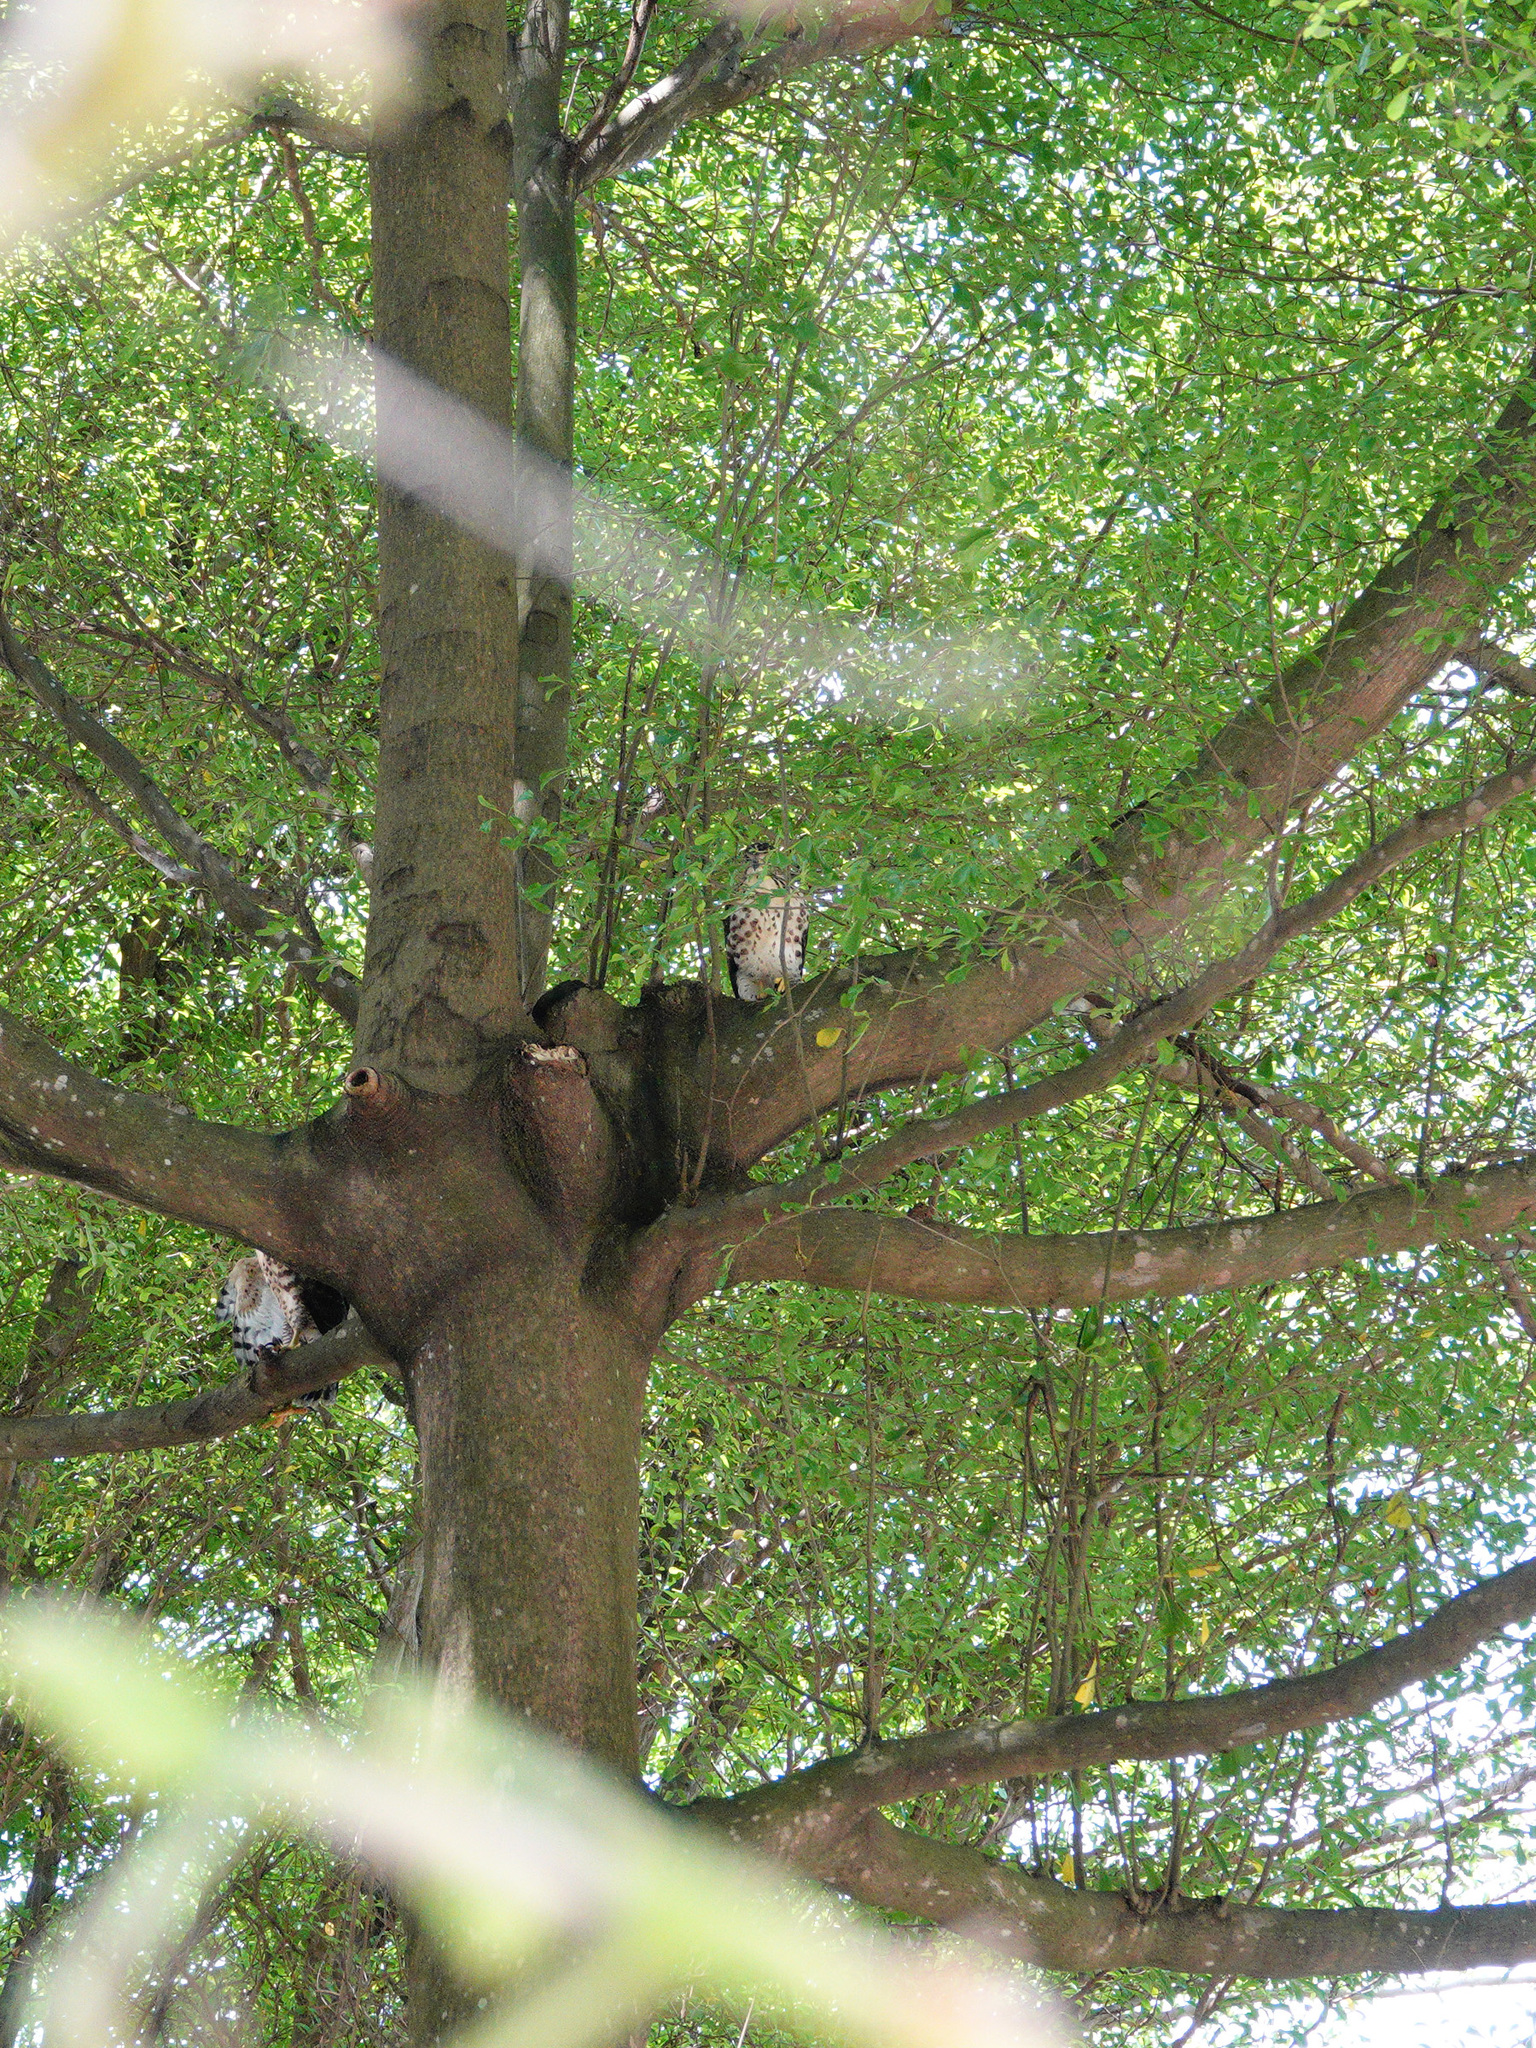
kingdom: Animalia
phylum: Chordata
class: Aves
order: Accipitriformes
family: Accipitridae
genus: Accipiter
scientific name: Accipiter trivirgatus
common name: Crested goshawk
